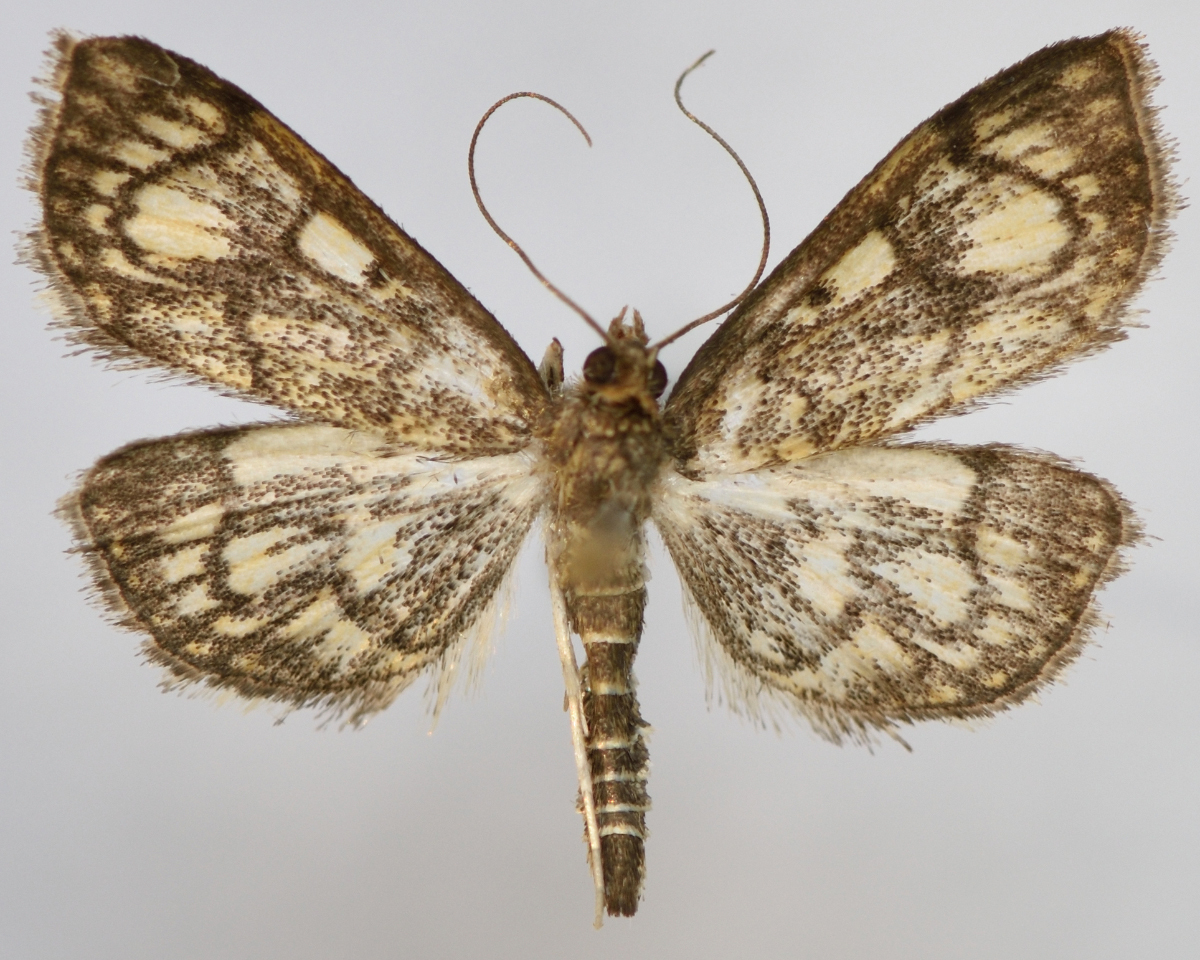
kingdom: Animalia
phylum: Arthropoda
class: Insecta
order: Lepidoptera
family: Crambidae
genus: Anania
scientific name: Anania stachydalis
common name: Woundwort pearl
